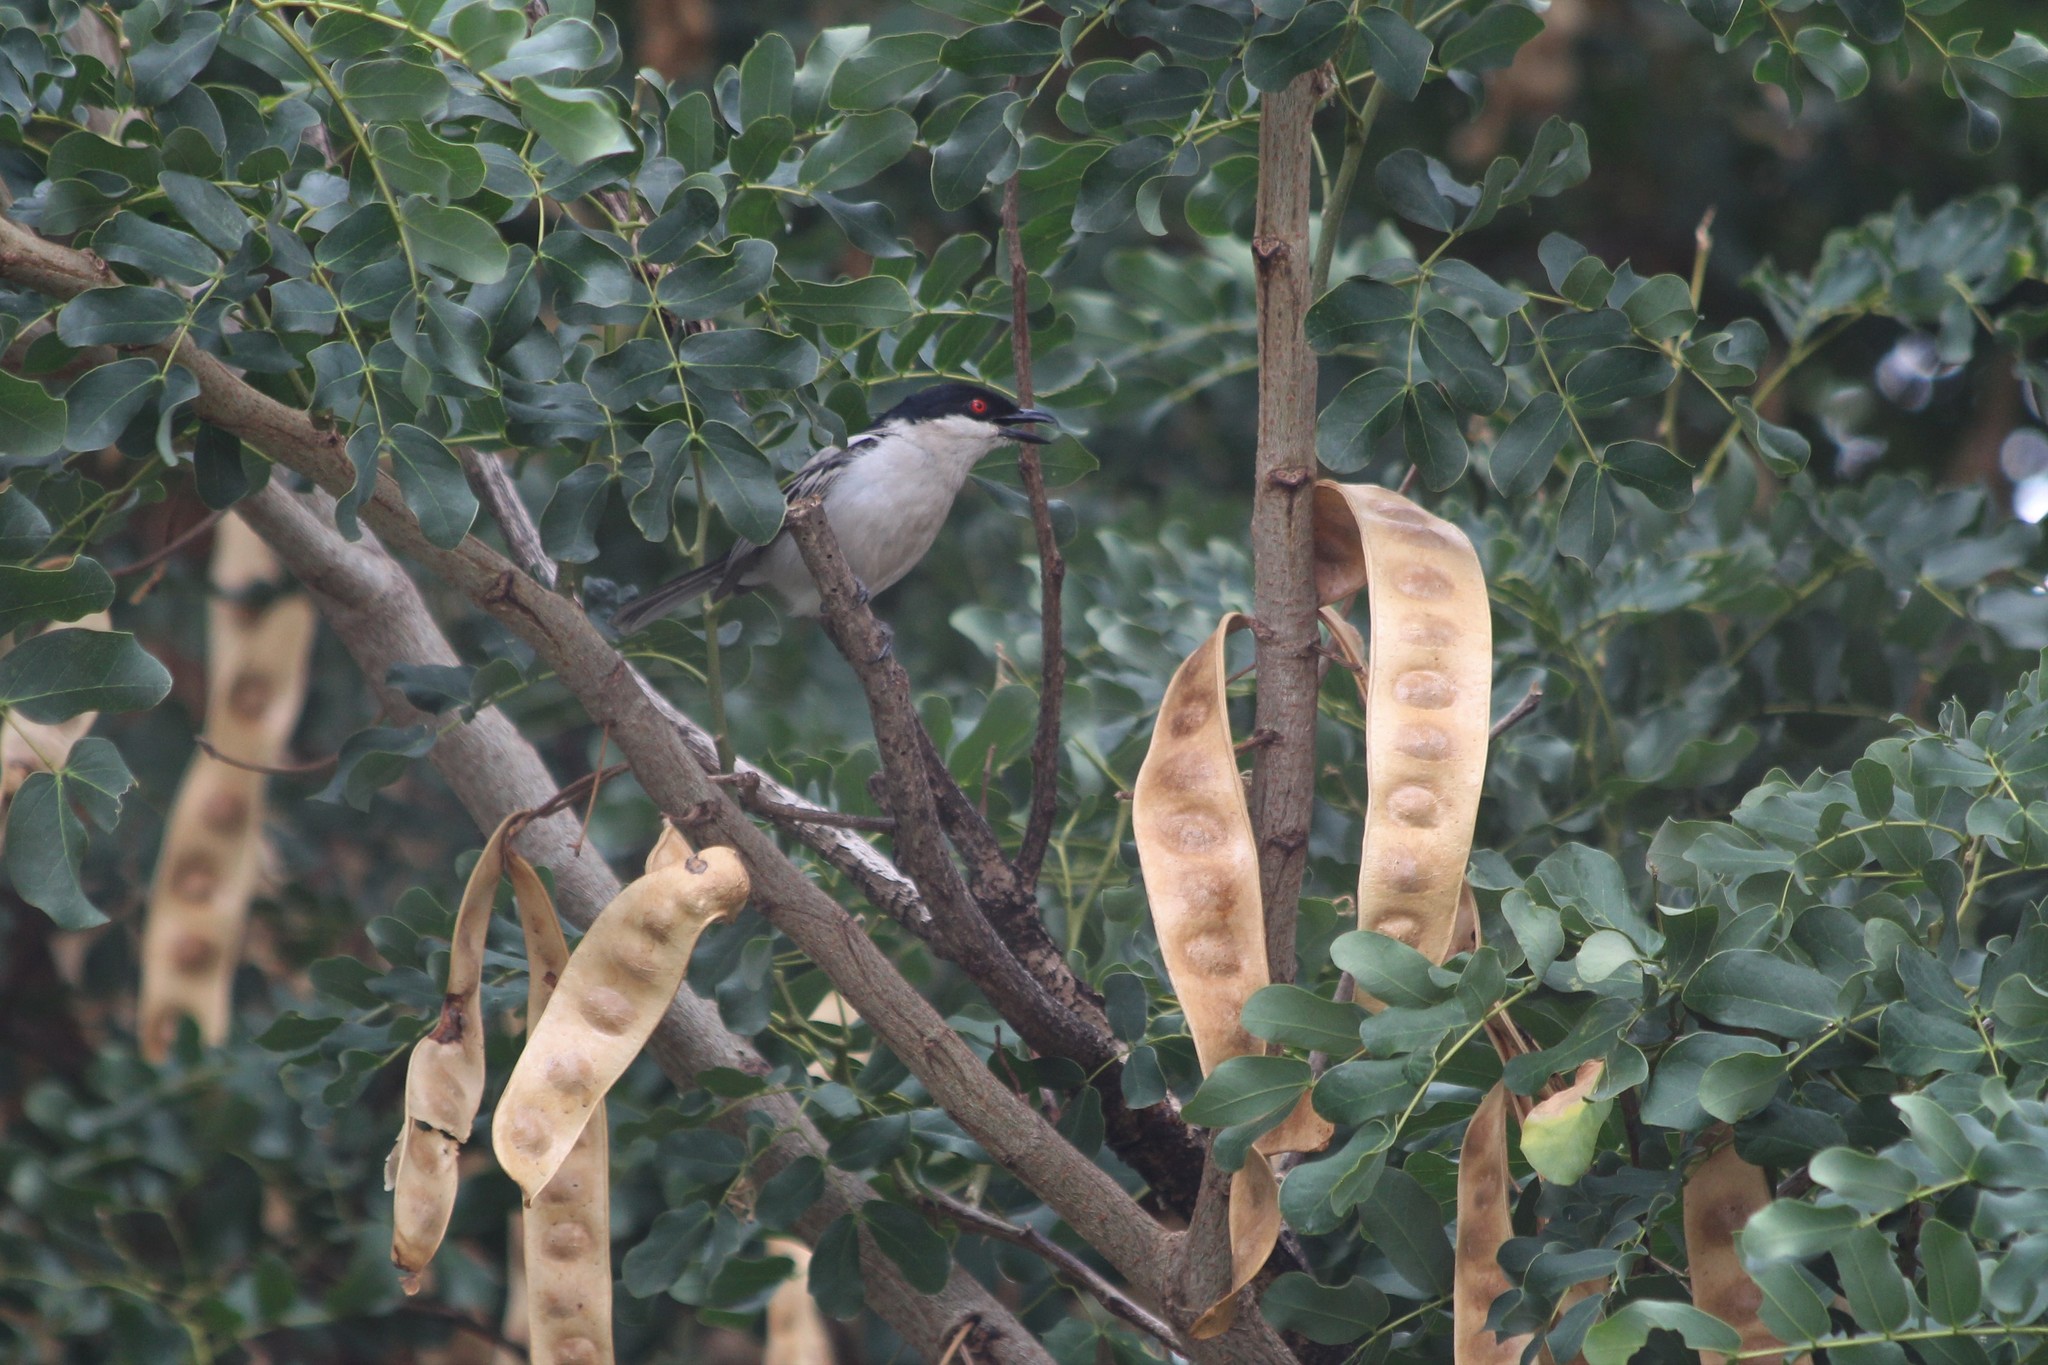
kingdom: Animalia
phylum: Chordata
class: Aves
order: Passeriformes
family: Malaconotidae
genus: Dryoscopus
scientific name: Dryoscopus cubla
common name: Black-backed puffback
